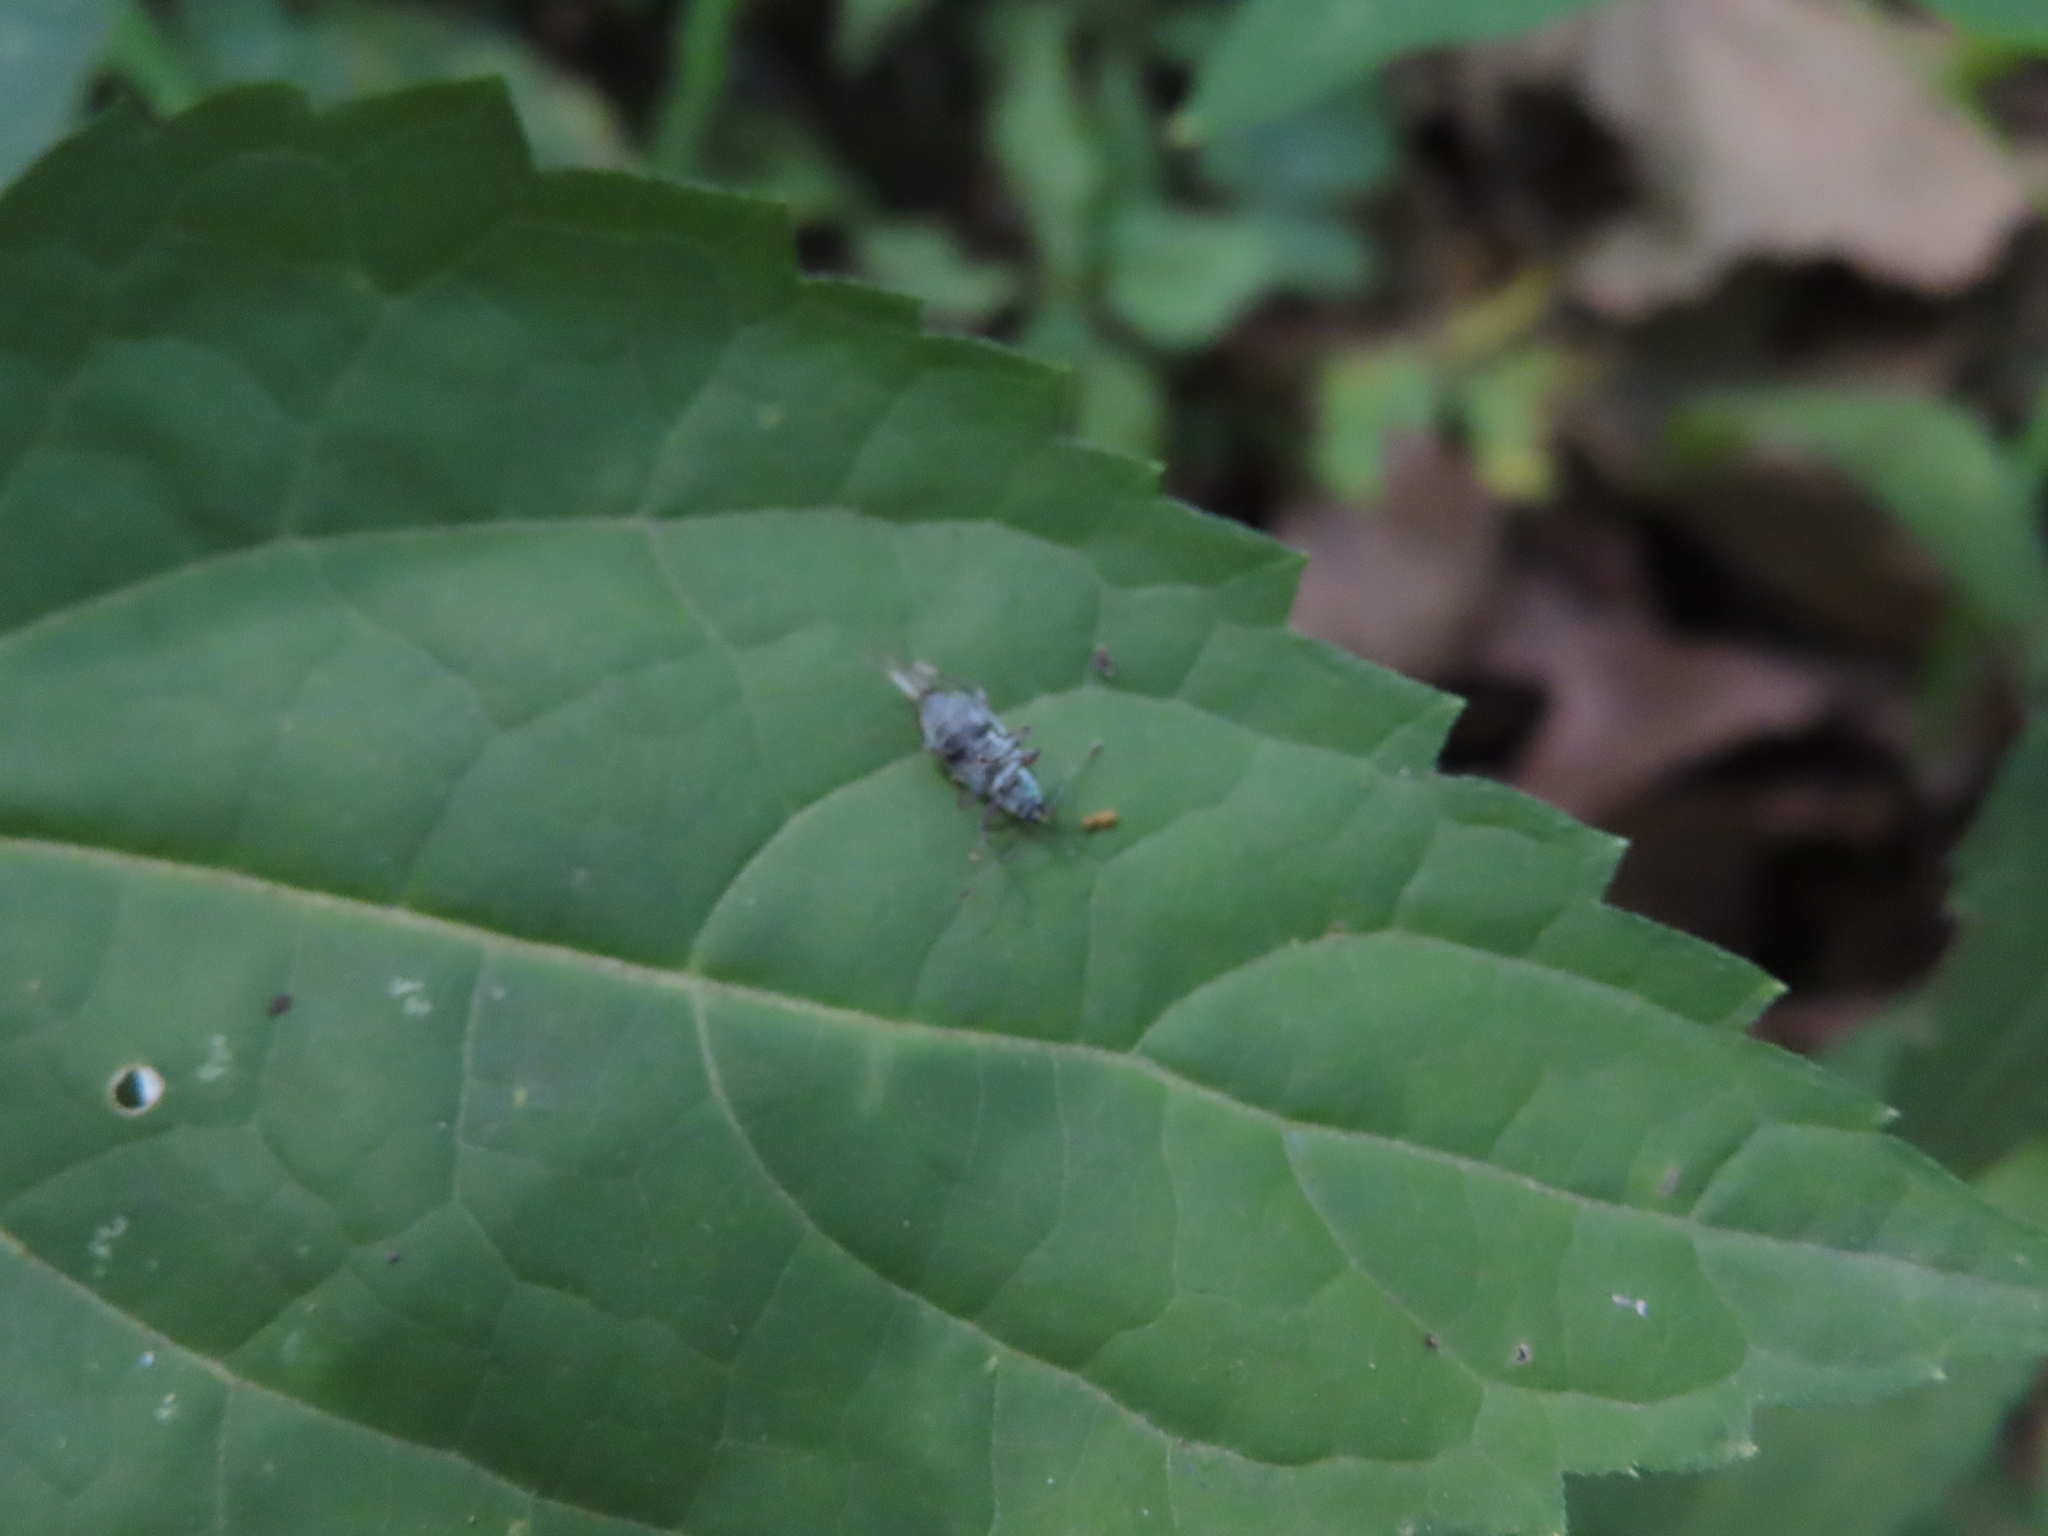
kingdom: Animalia
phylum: Arthropoda
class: Insecta
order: Coleoptera
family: Curculionidae
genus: Cyrtepistomus
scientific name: Cyrtepistomus castaneus
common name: Weevil
